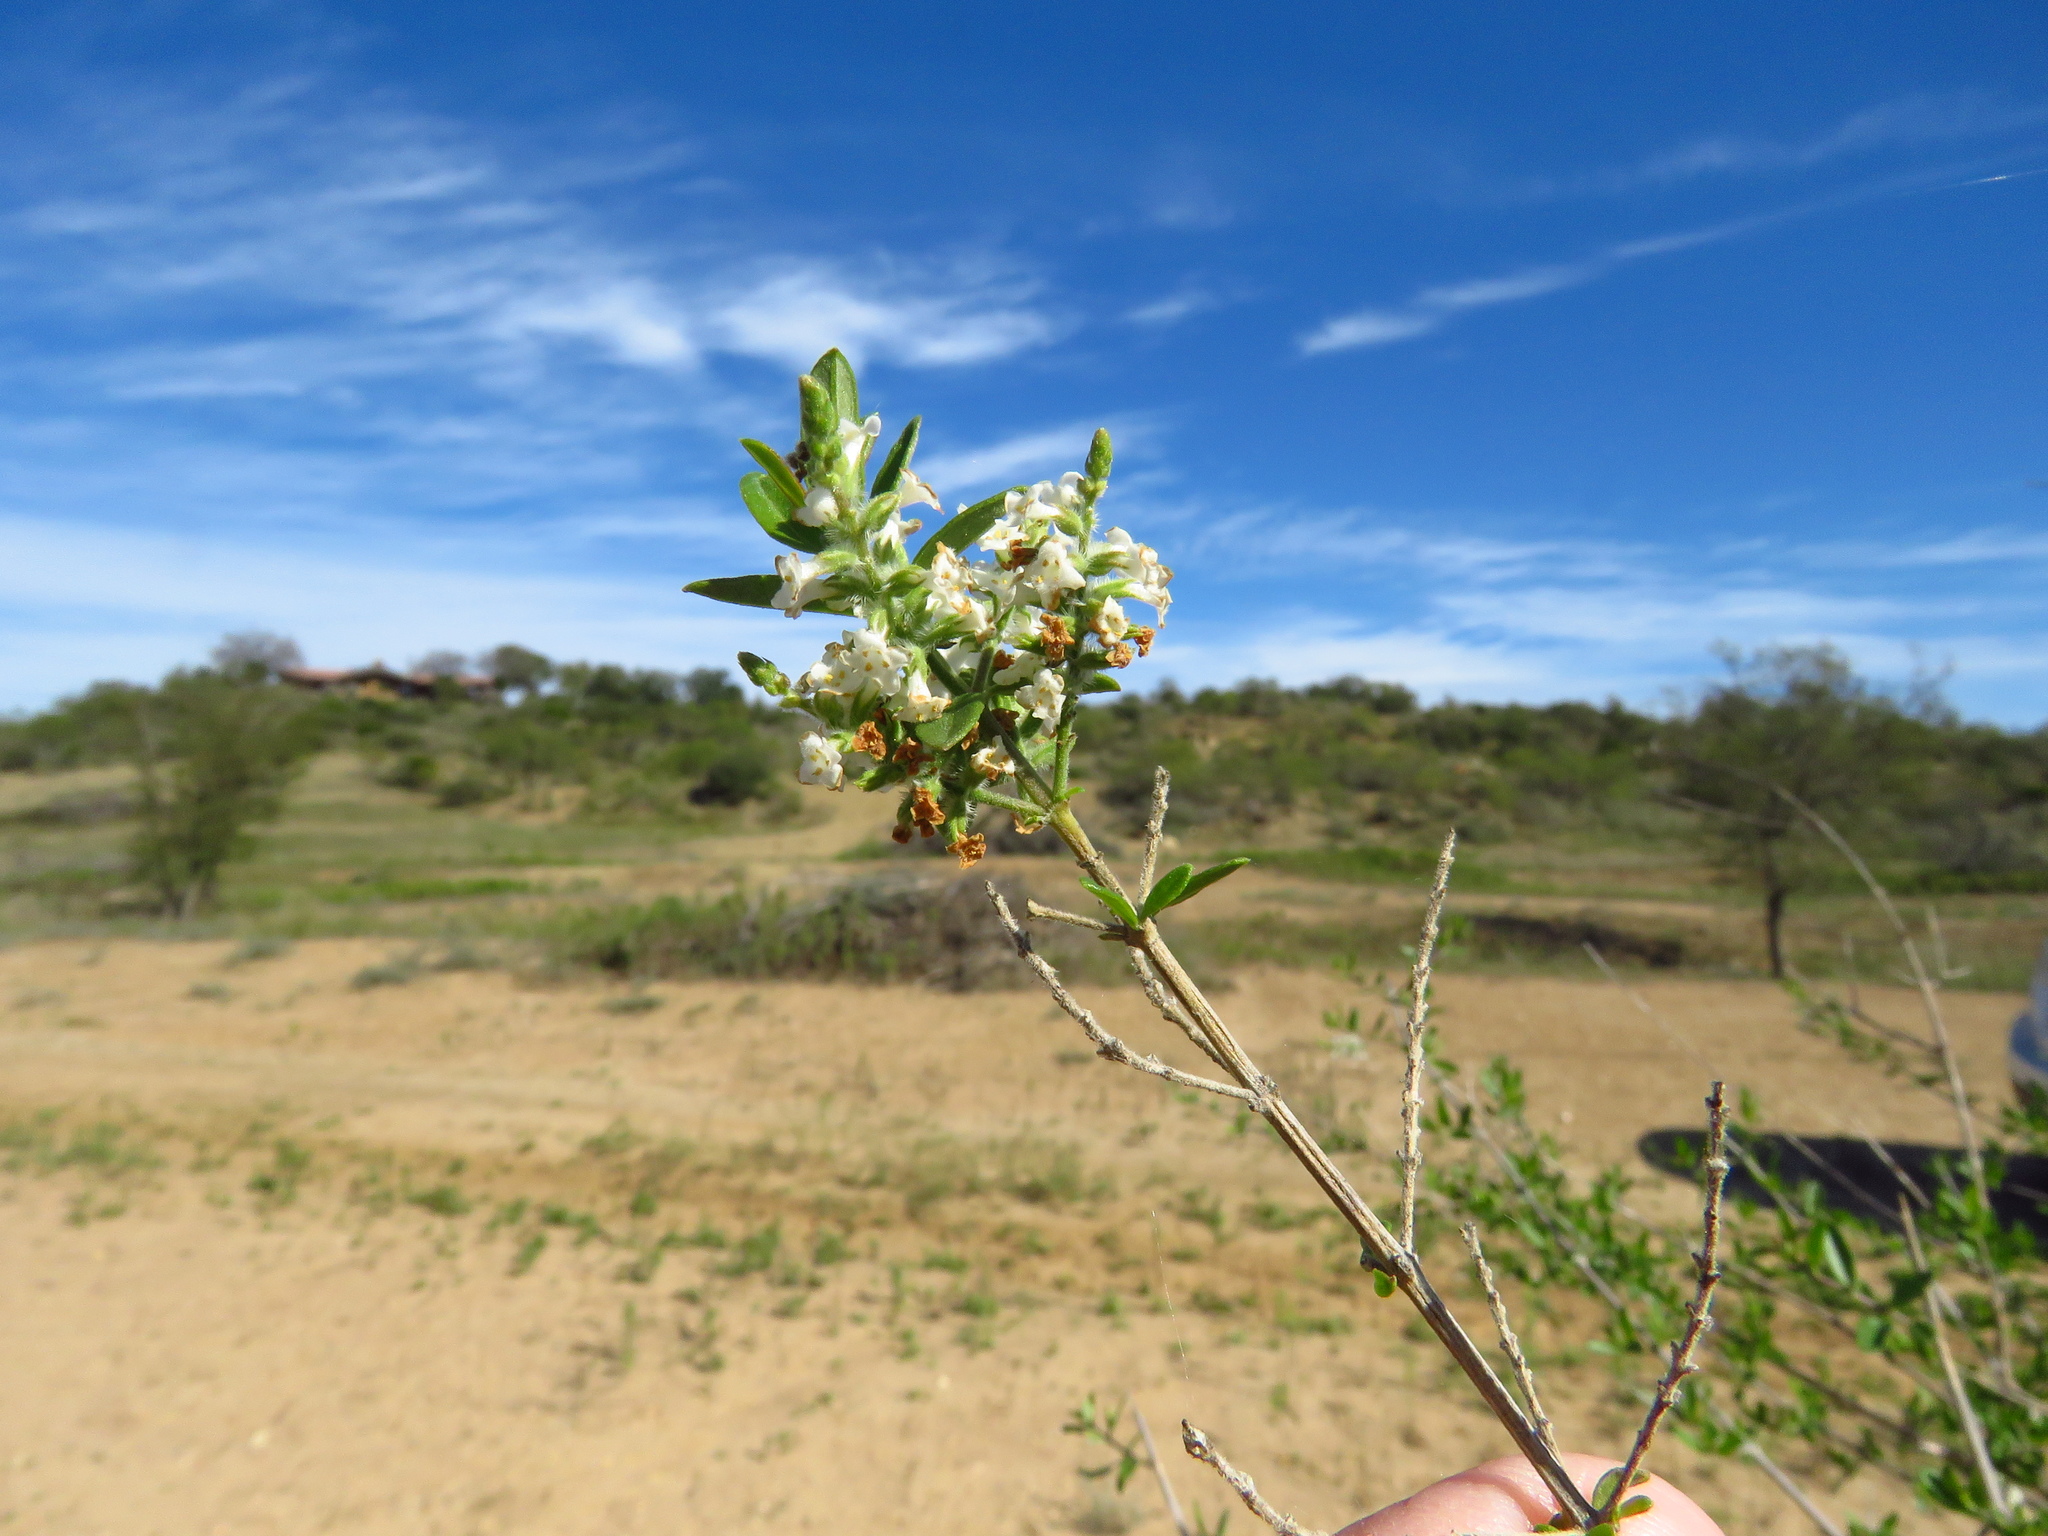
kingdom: Plantae
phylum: Tracheophyta
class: Magnoliopsida
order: Lamiales
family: Verbenaceae
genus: Aloysia
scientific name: Aloysia gratissima
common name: Common bee-brush
